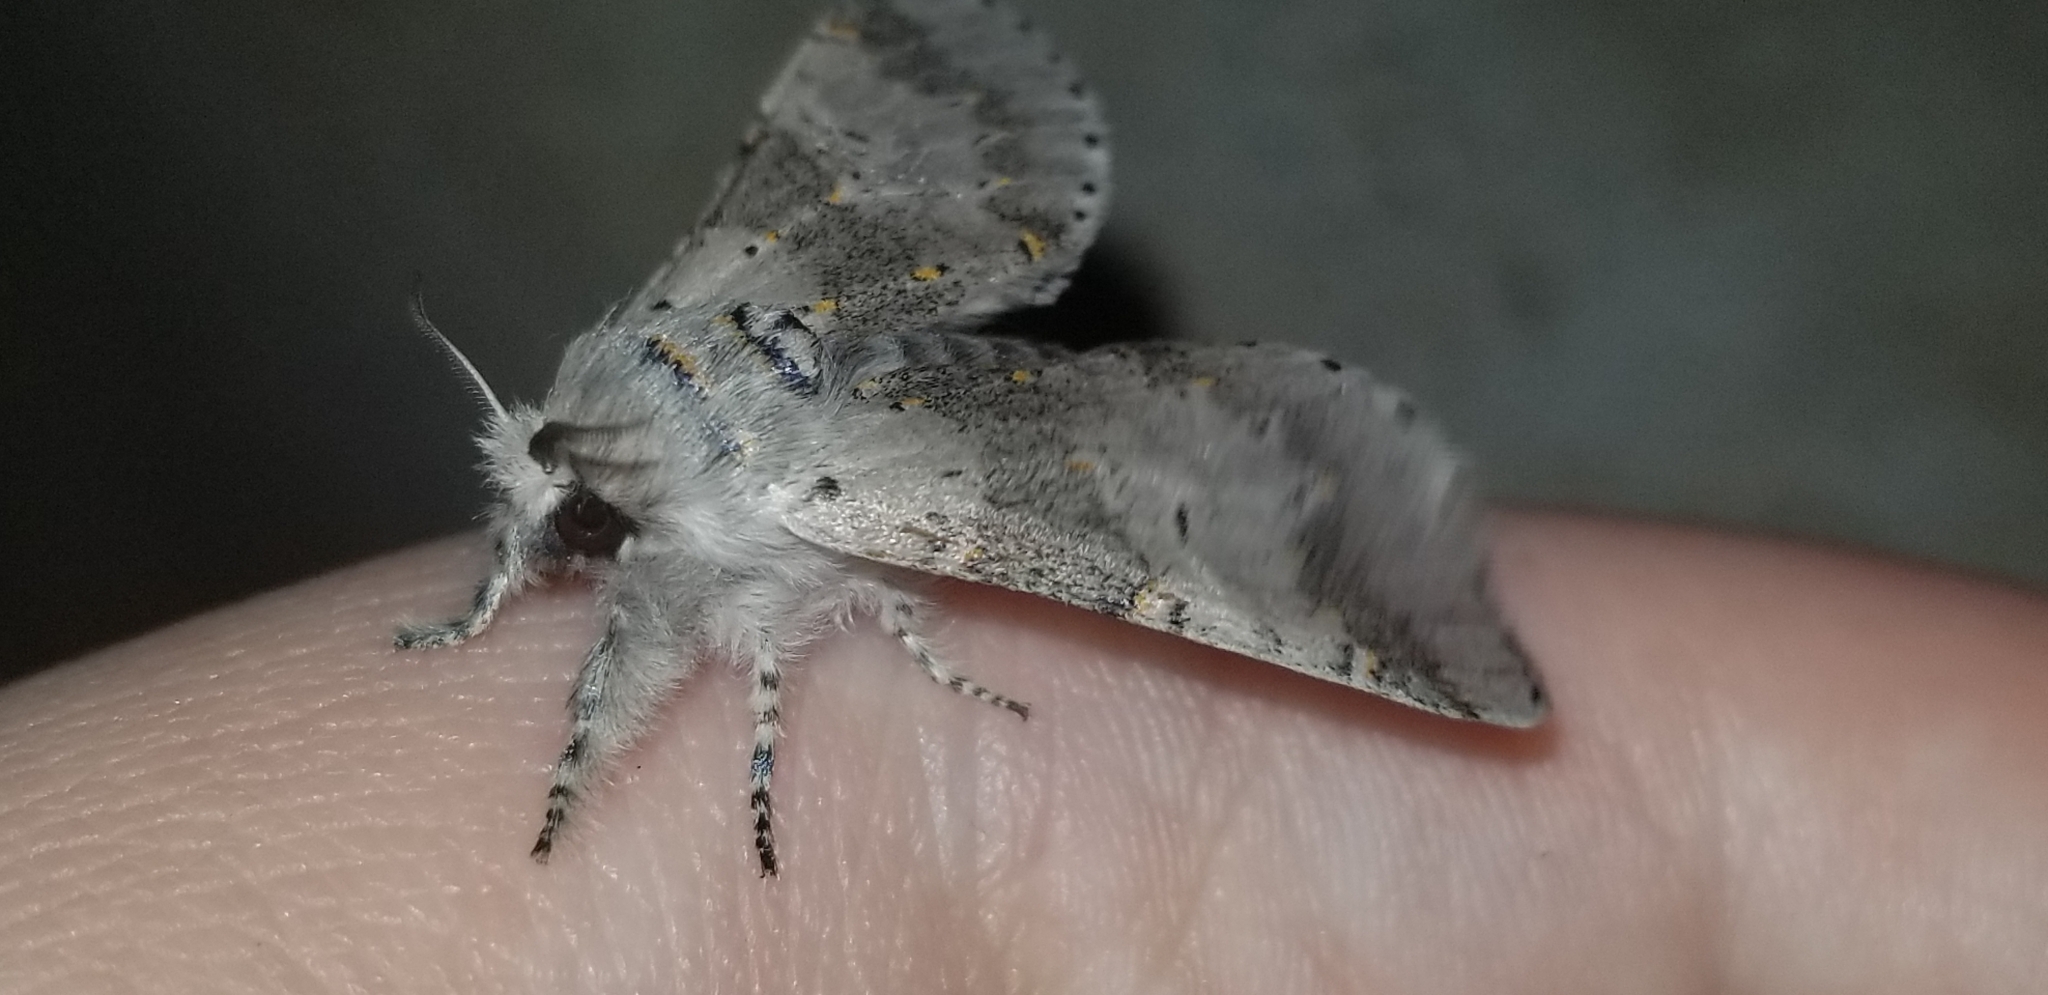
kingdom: Animalia
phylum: Arthropoda
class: Insecta
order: Lepidoptera
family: Notodontidae
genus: Furcula
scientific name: Furcula cinerea
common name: Gray furcula
